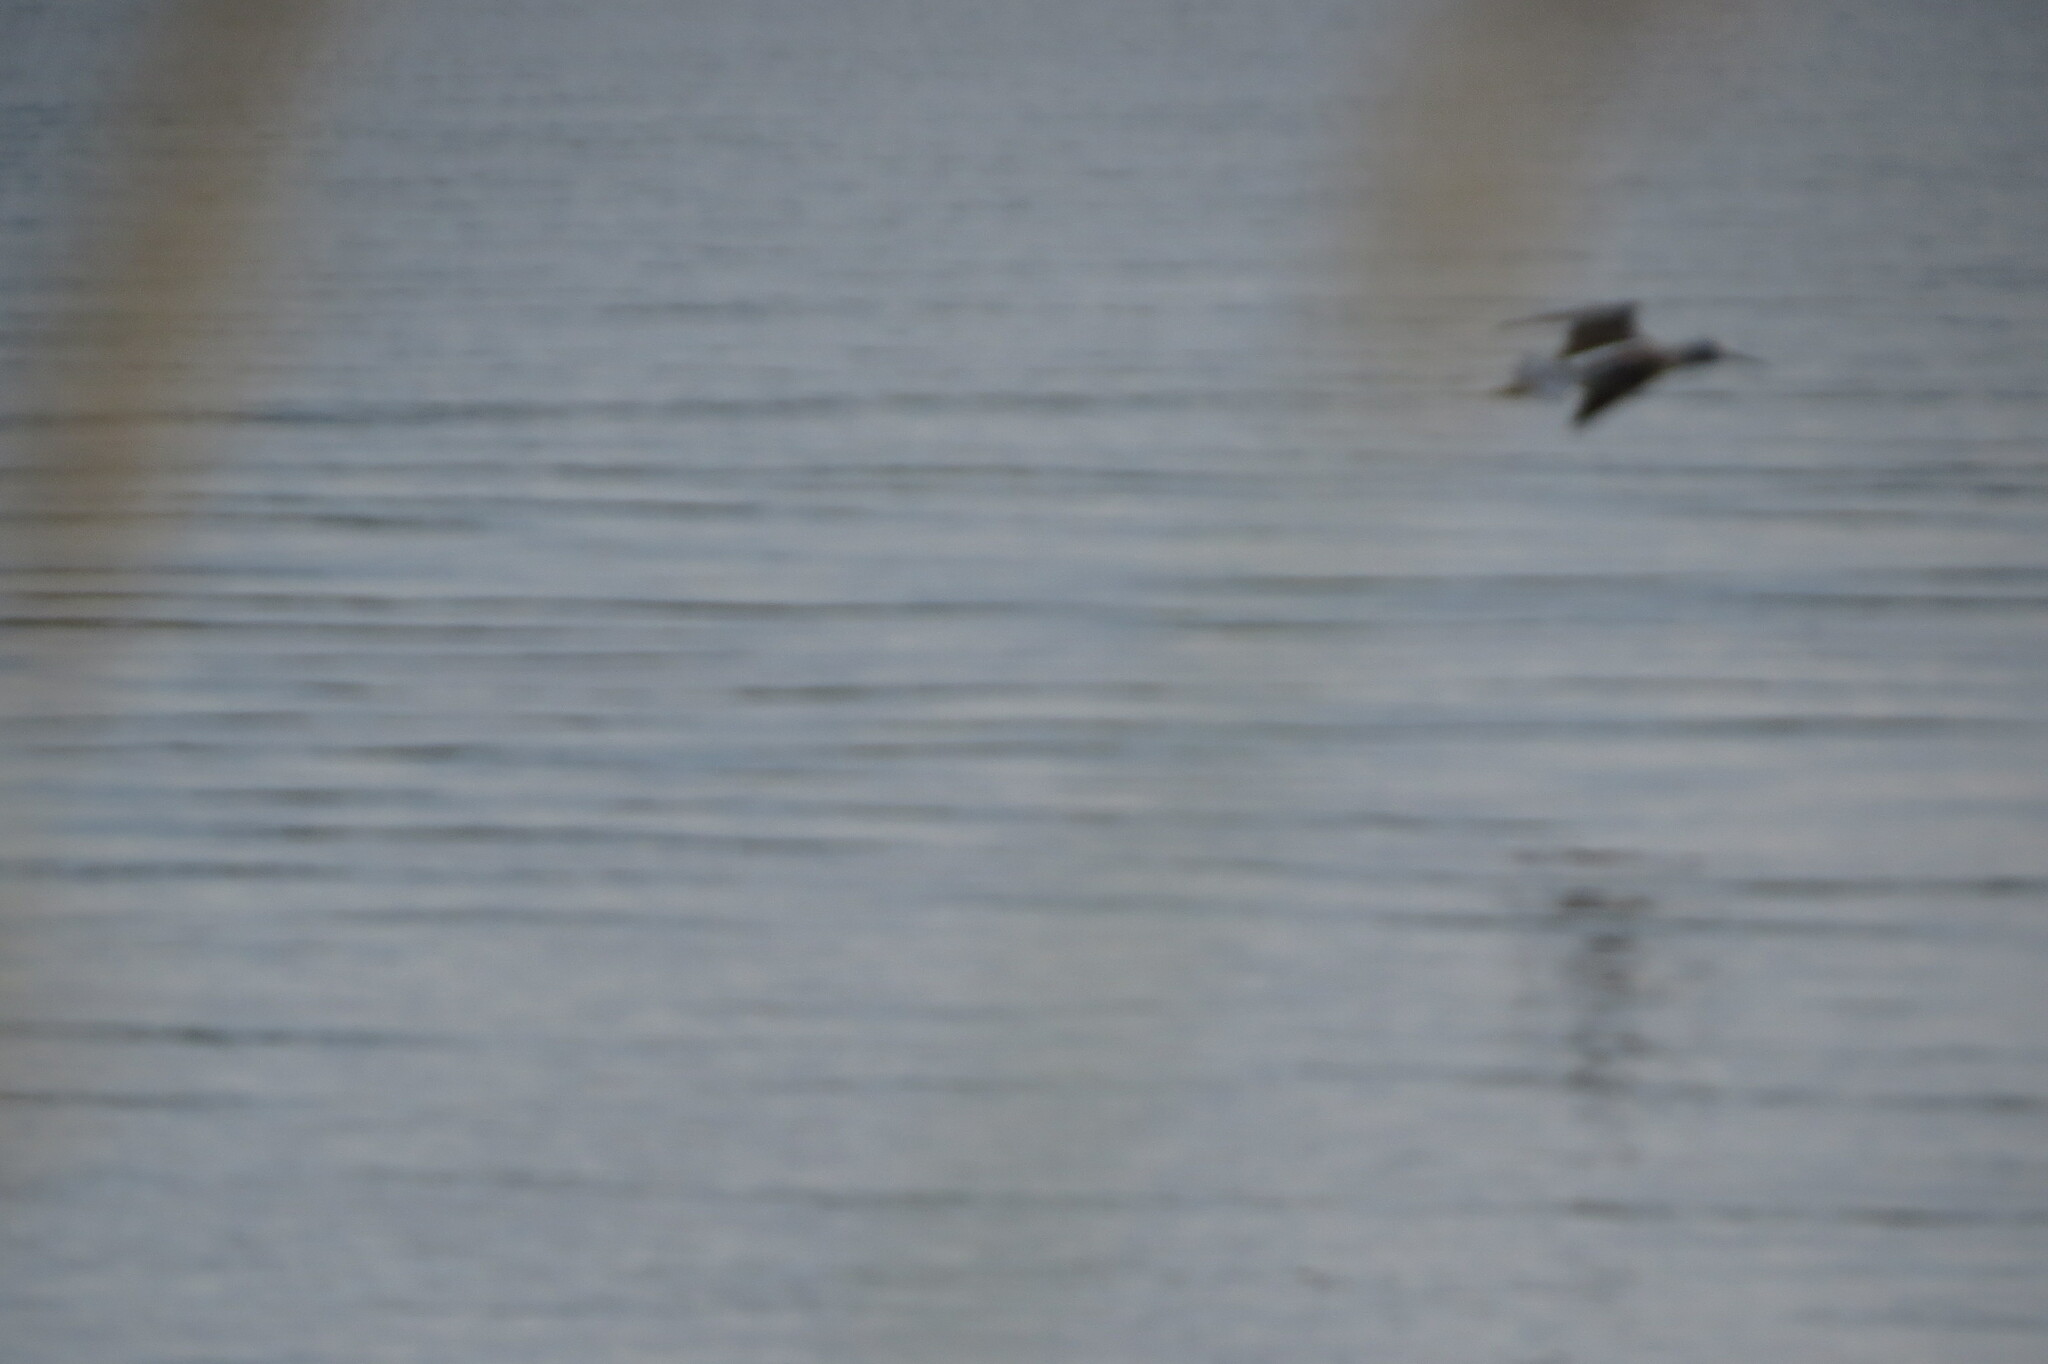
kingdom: Animalia
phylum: Chordata
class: Aves
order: Charadriiformes
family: Scolopacidae
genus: Tringa
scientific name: Tringa nebularia
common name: Common greenshank
